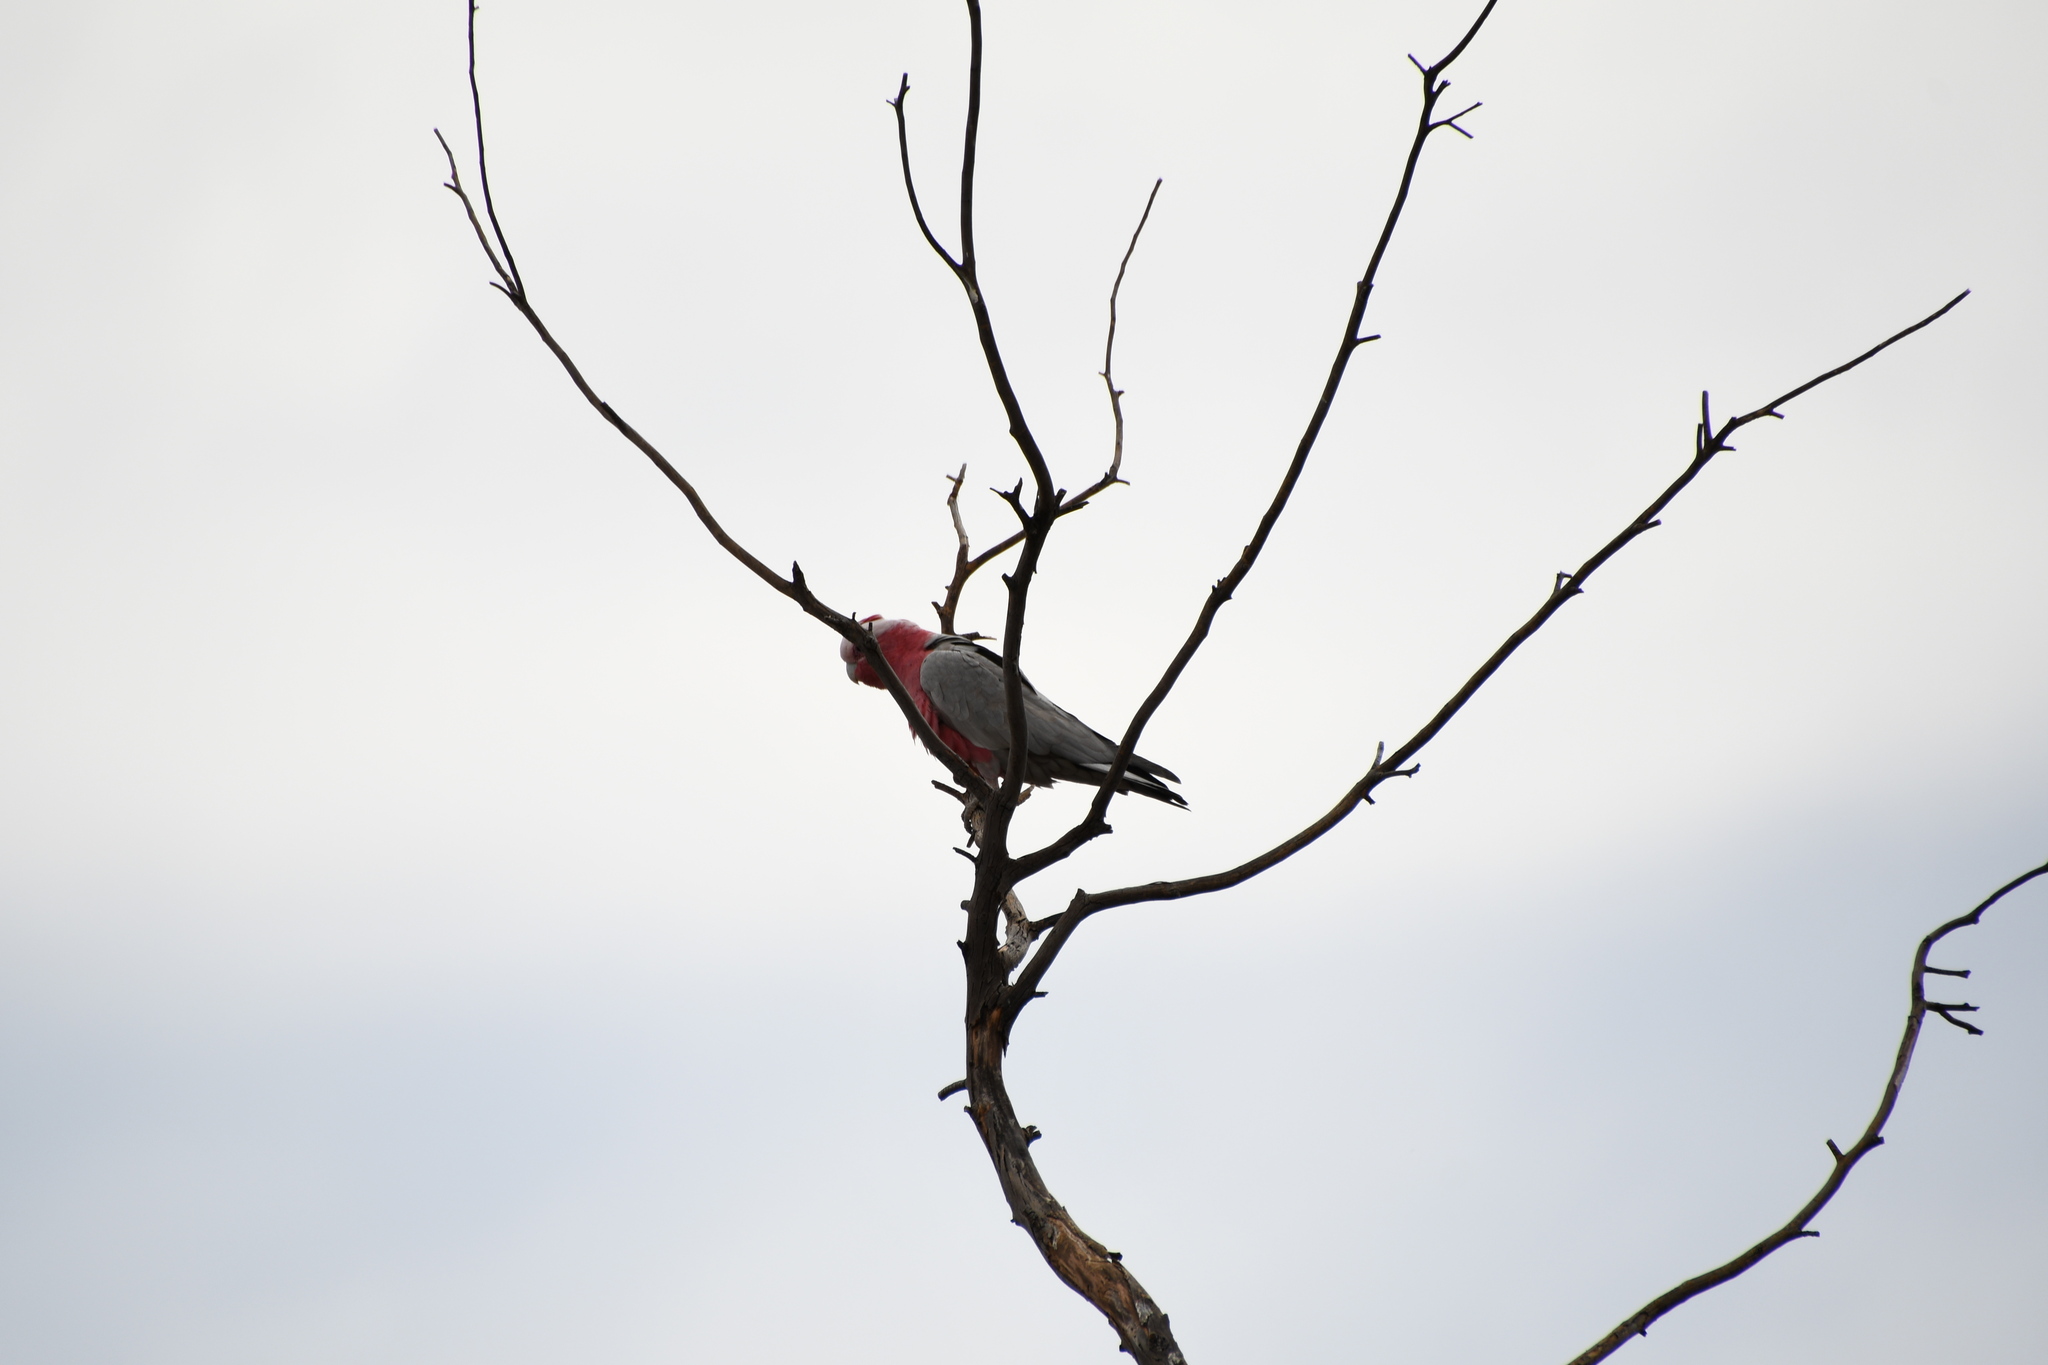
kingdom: Animalia
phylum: Chordata
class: Aves
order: Psittaciformes
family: Psittacidae
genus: Eolophus
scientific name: Eolophus roseicapilla
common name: Galah
